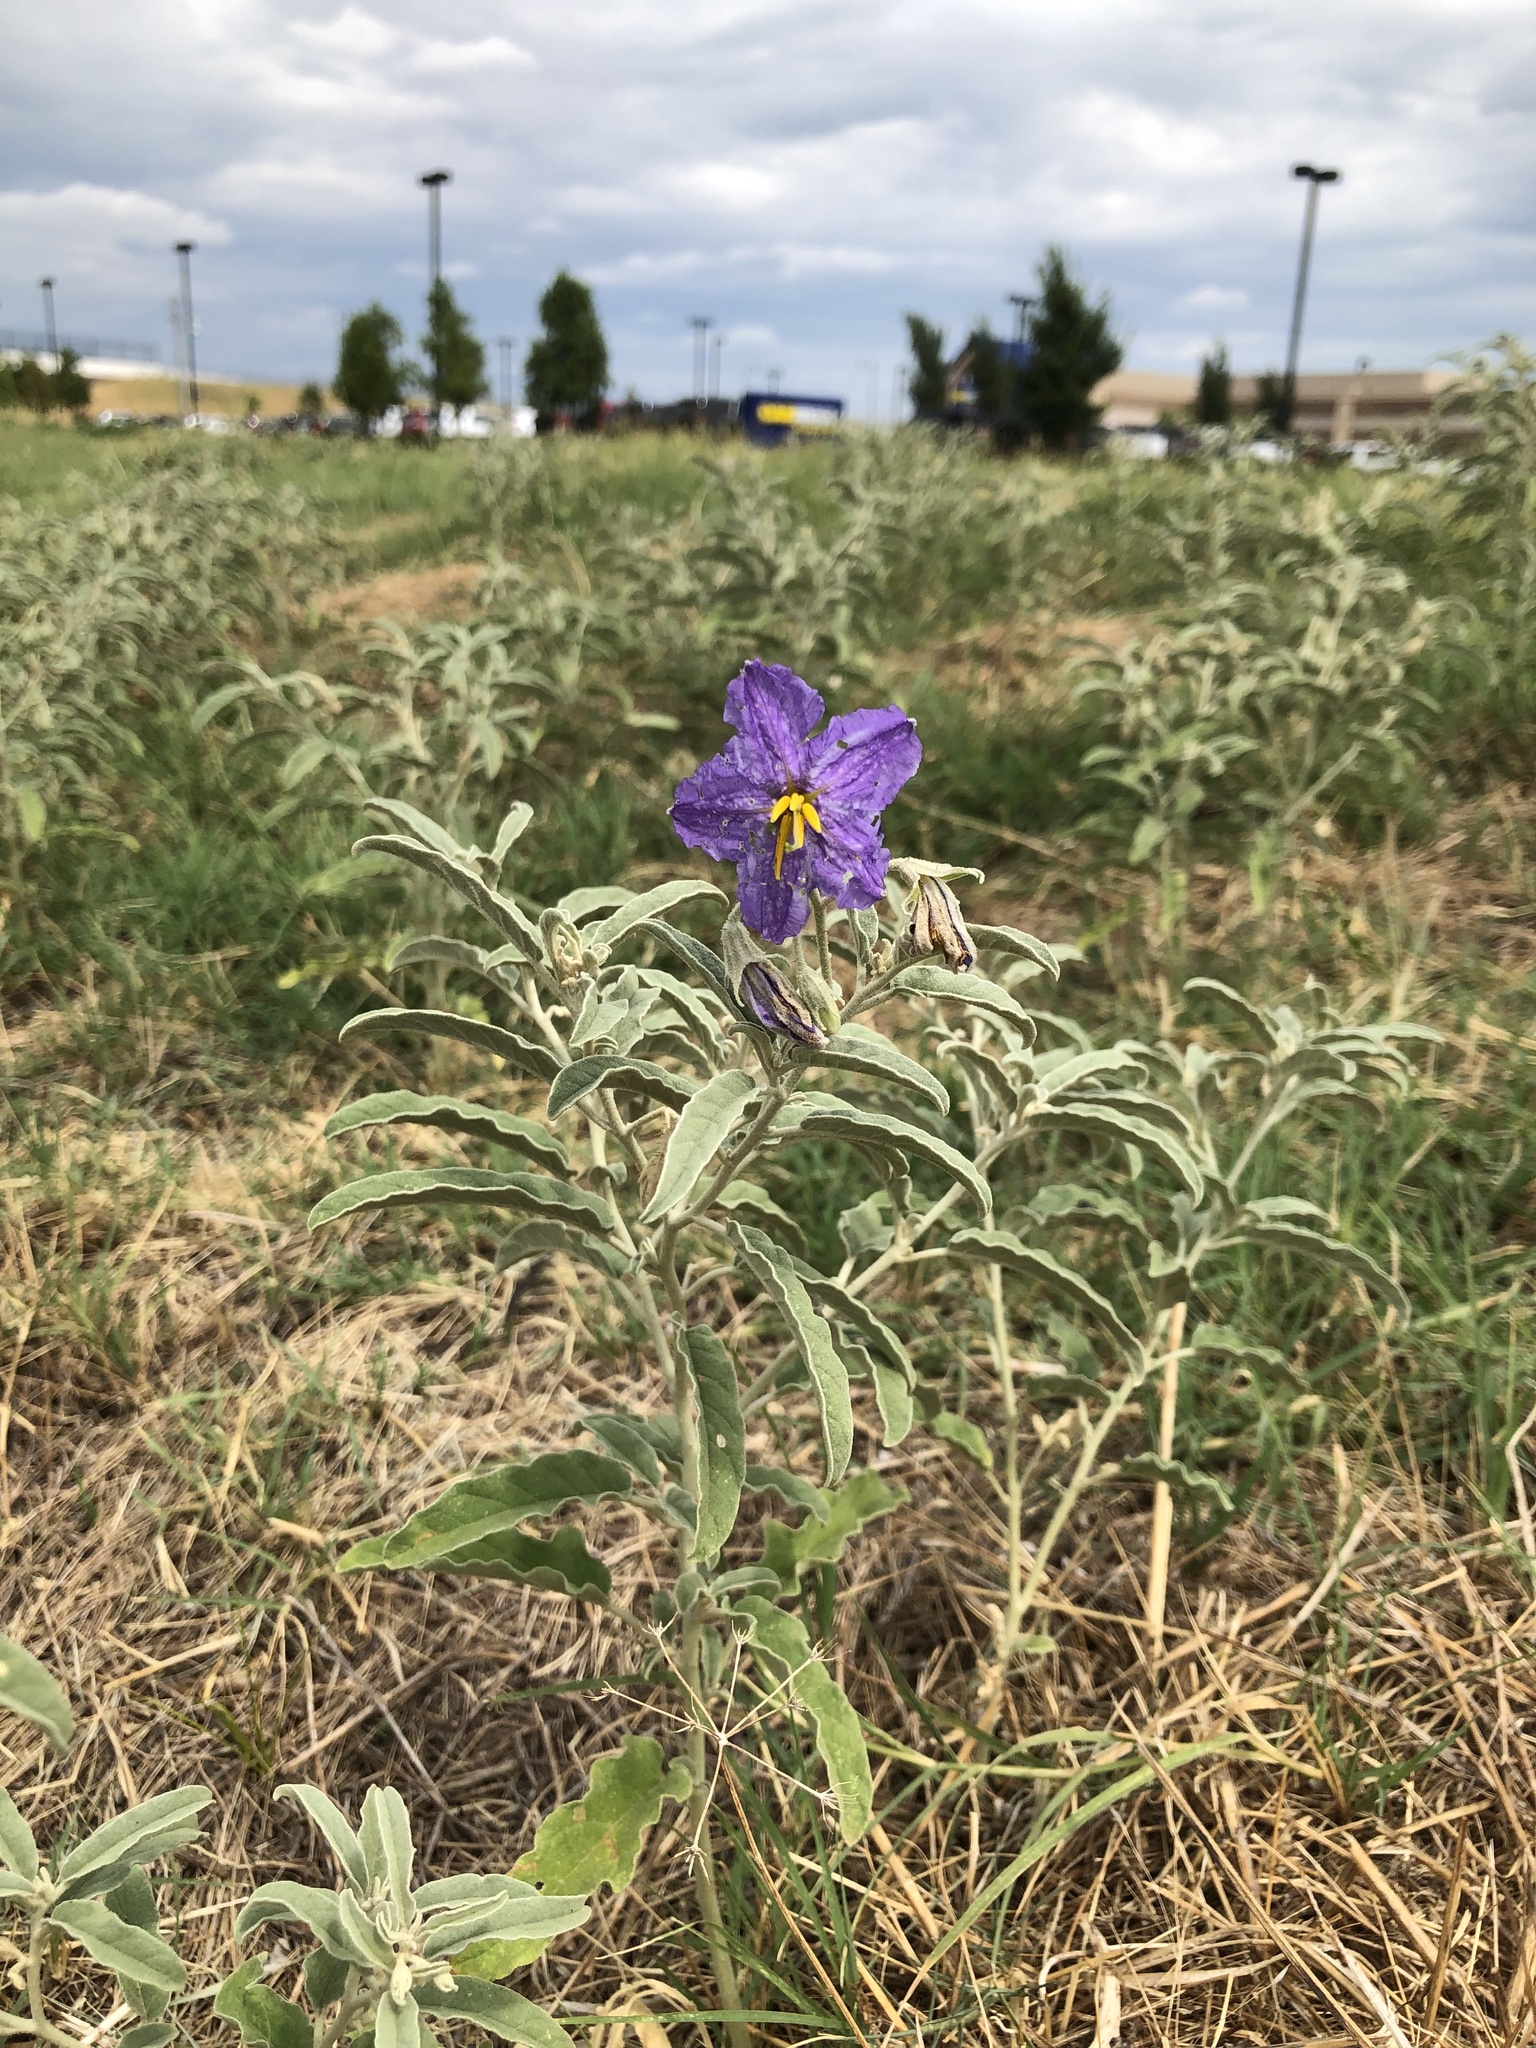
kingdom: Plantae
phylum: Tracheophyta
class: Magnoliopsida
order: Solanales
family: Solanaceae
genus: Solanum
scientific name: Solanum elaeagnifolium
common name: Silverleaf nightshade
